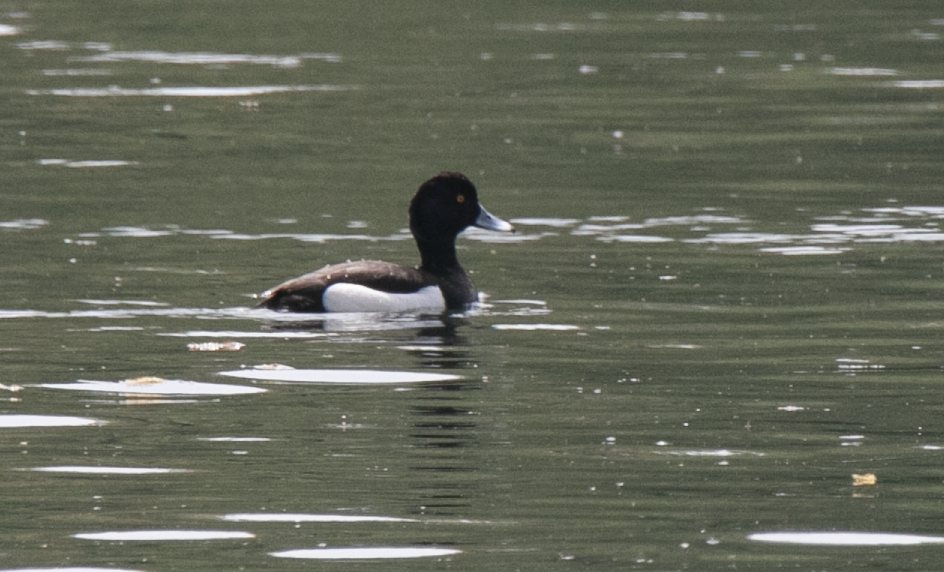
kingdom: Animalia
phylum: Chordata
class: Aves
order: Anseriformes
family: Anatidae
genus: Aythya
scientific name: Aythya fuligula
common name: Tufted duck
